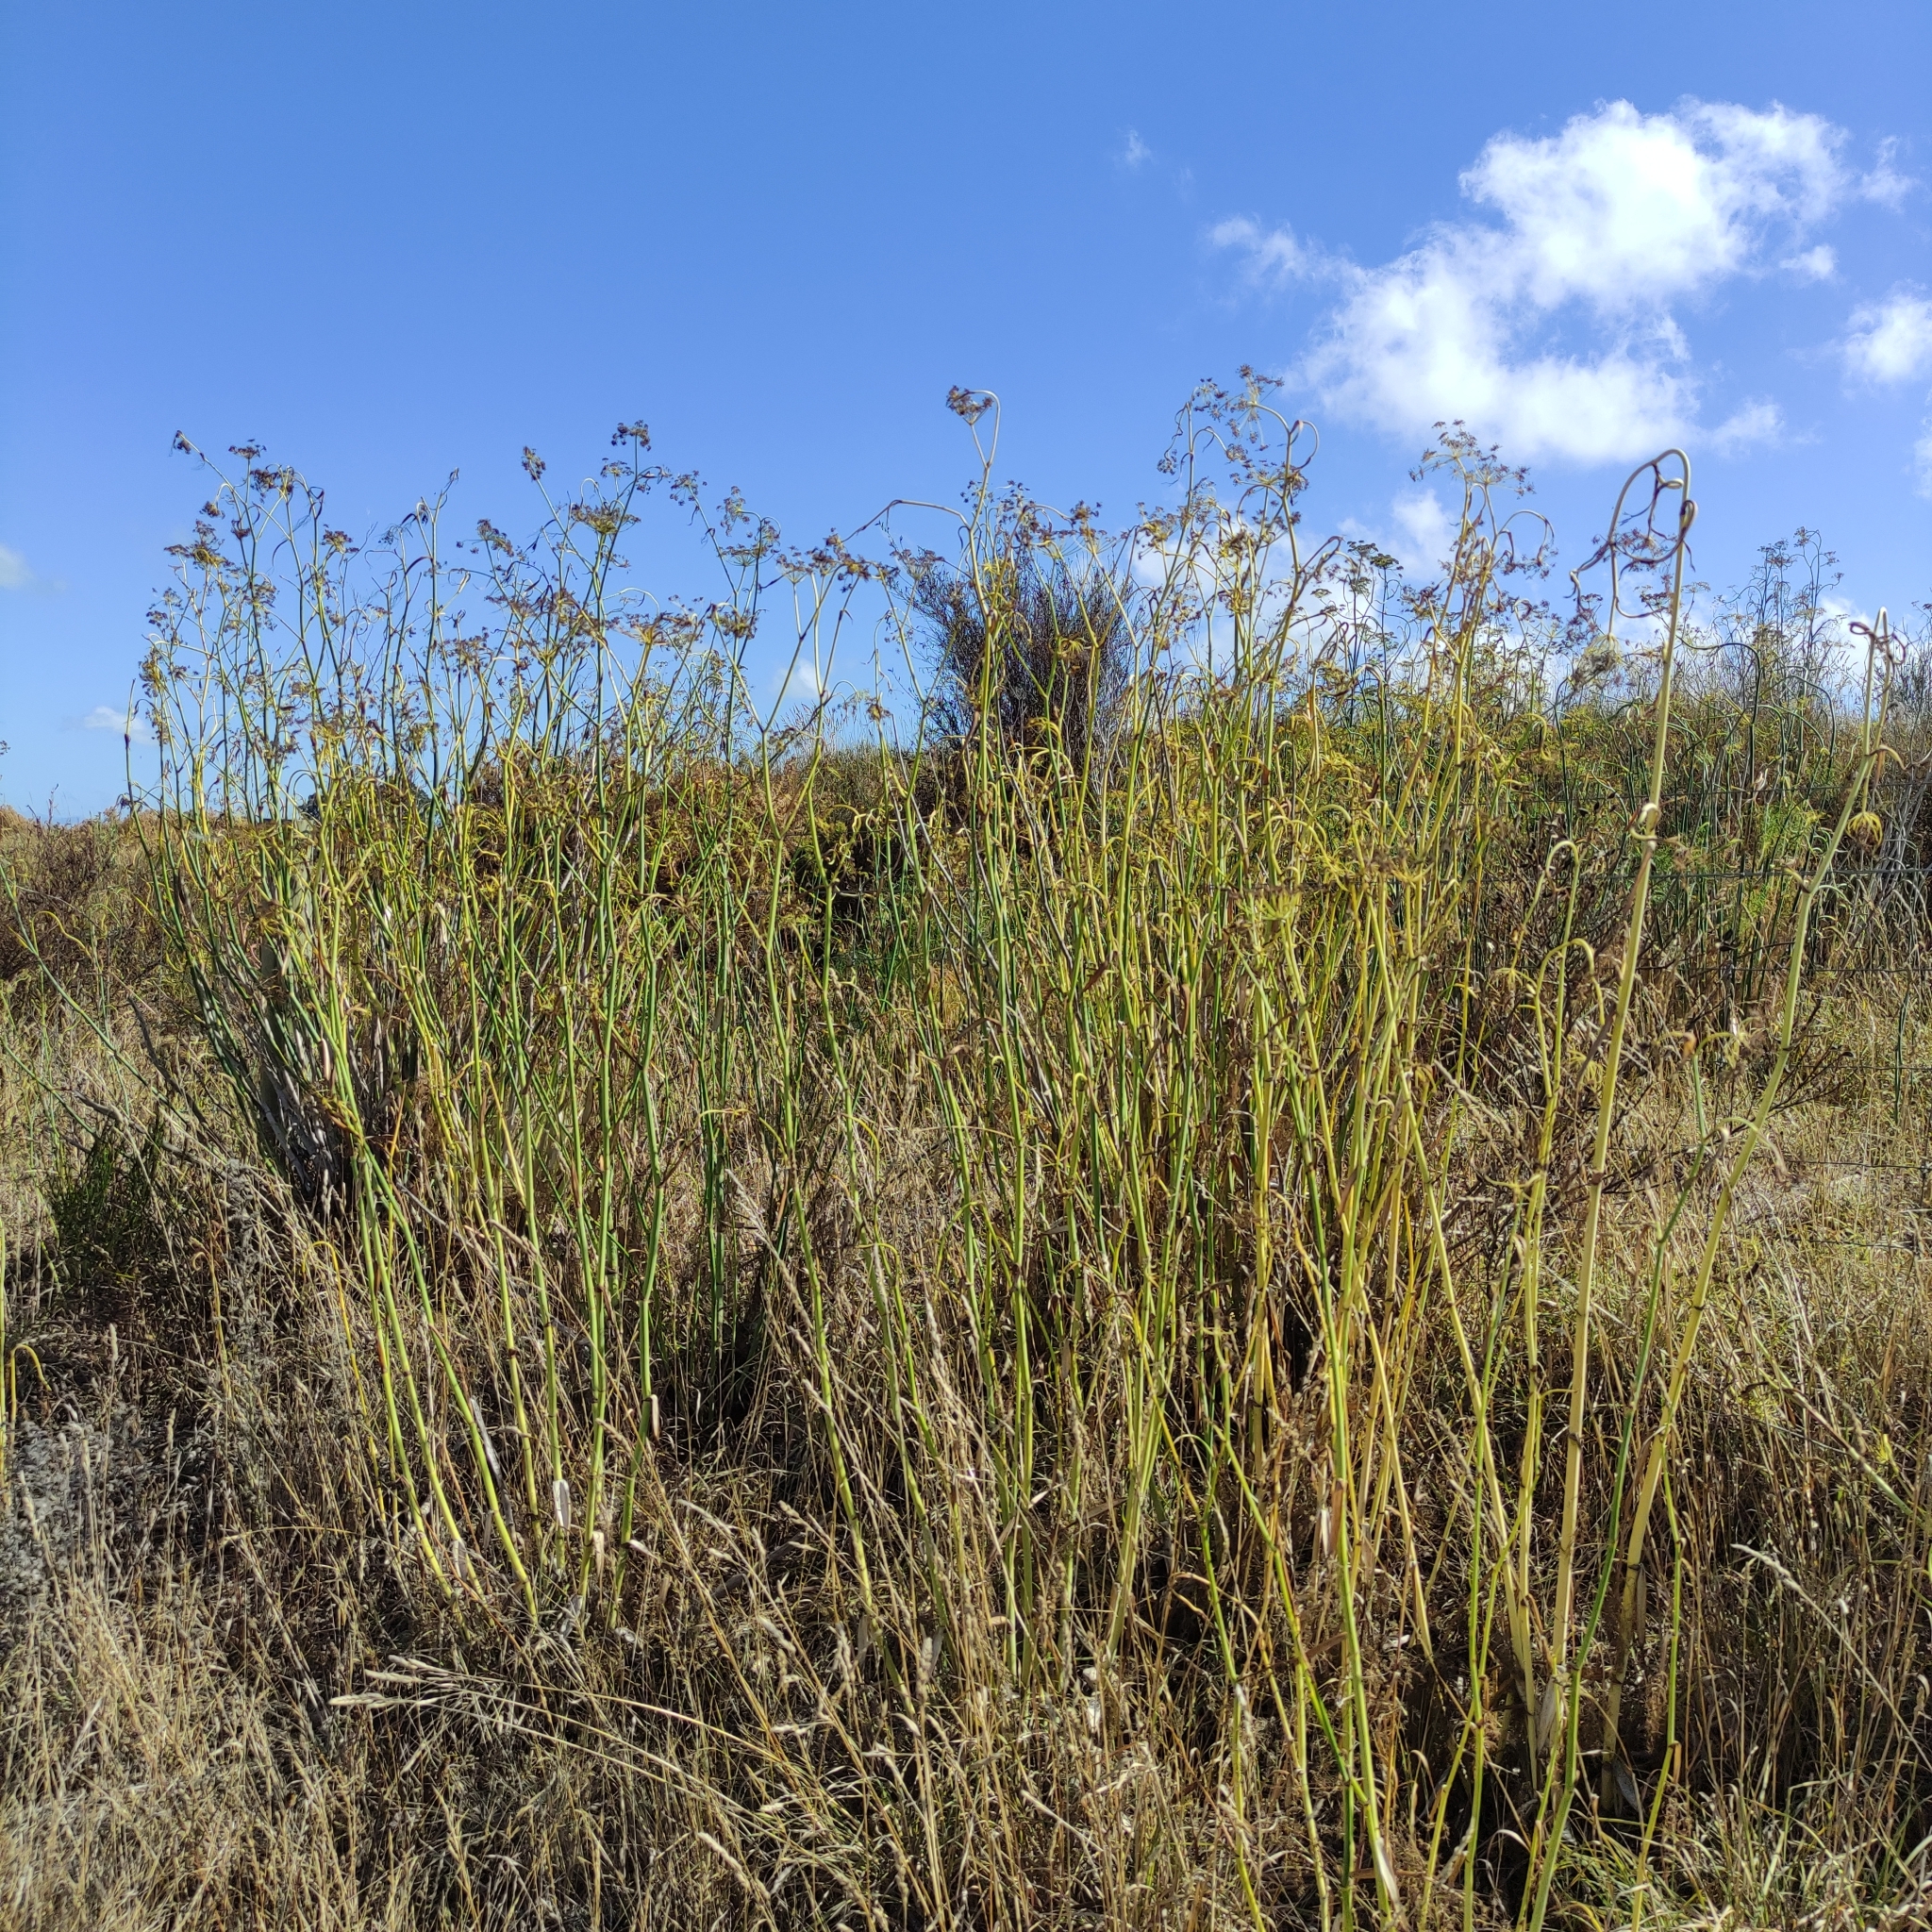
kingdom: Plantae
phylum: Tracheophyta
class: Magnoliopsida
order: Apiales
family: Apiaceae
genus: Foeniculum
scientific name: Foeniculum vulgare
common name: Fennel
